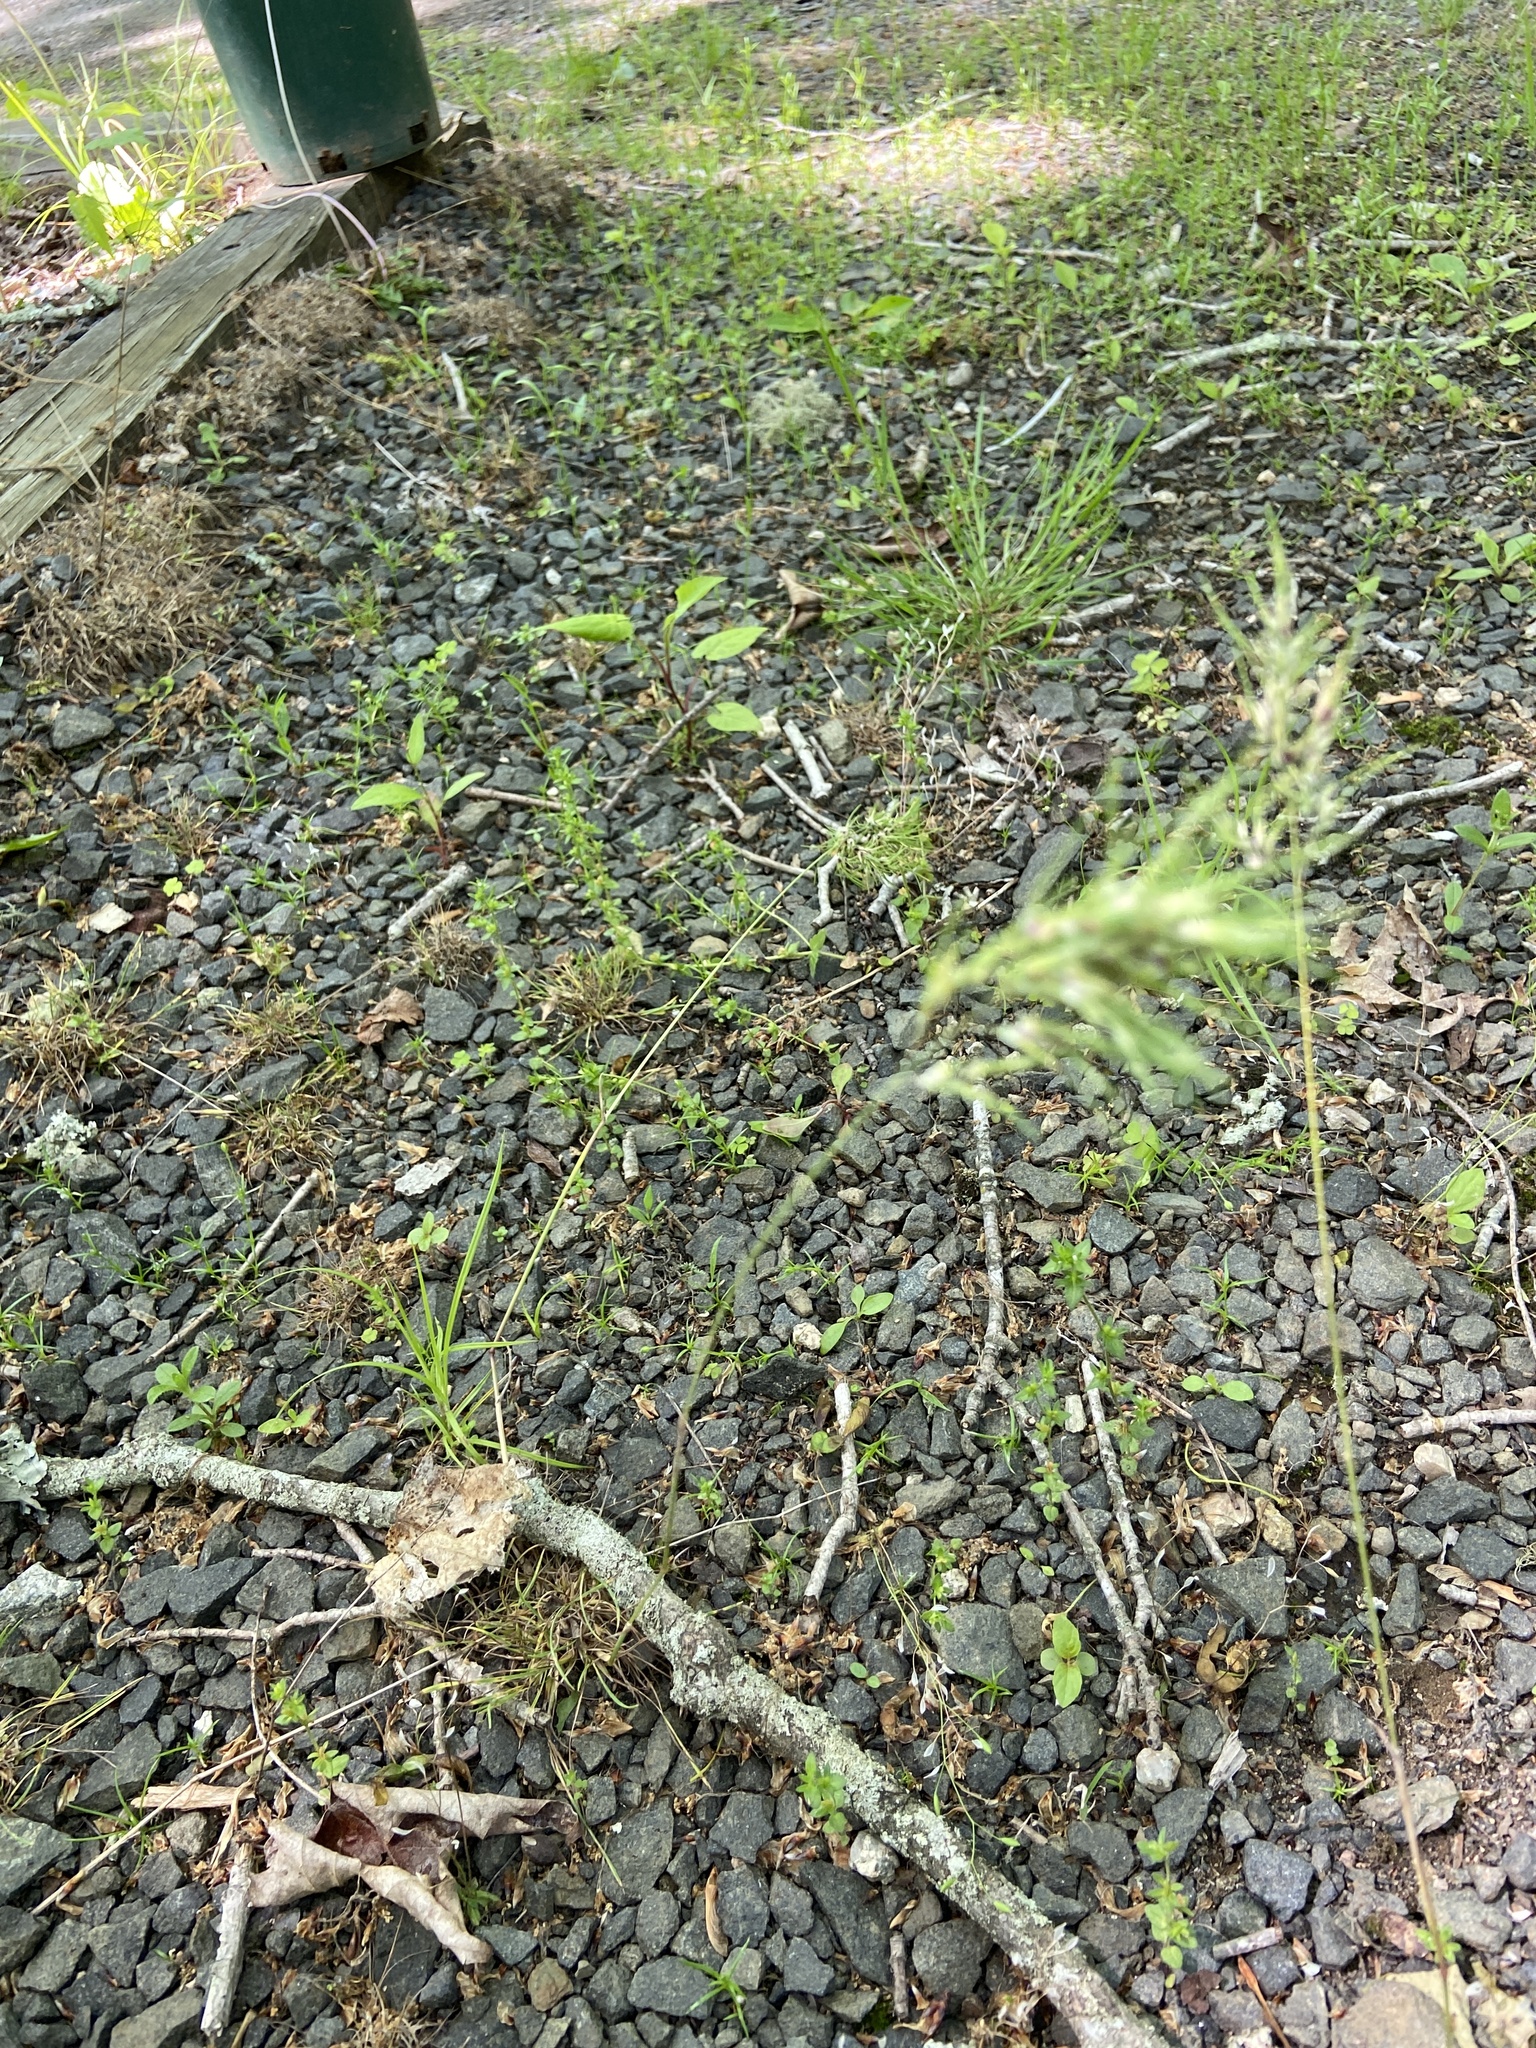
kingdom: Plantae
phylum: Tracheophyta
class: Liliopsida
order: Poales
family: Poaceae
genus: Poa
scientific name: Poa bulbosa
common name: Bulbous bluegrass
